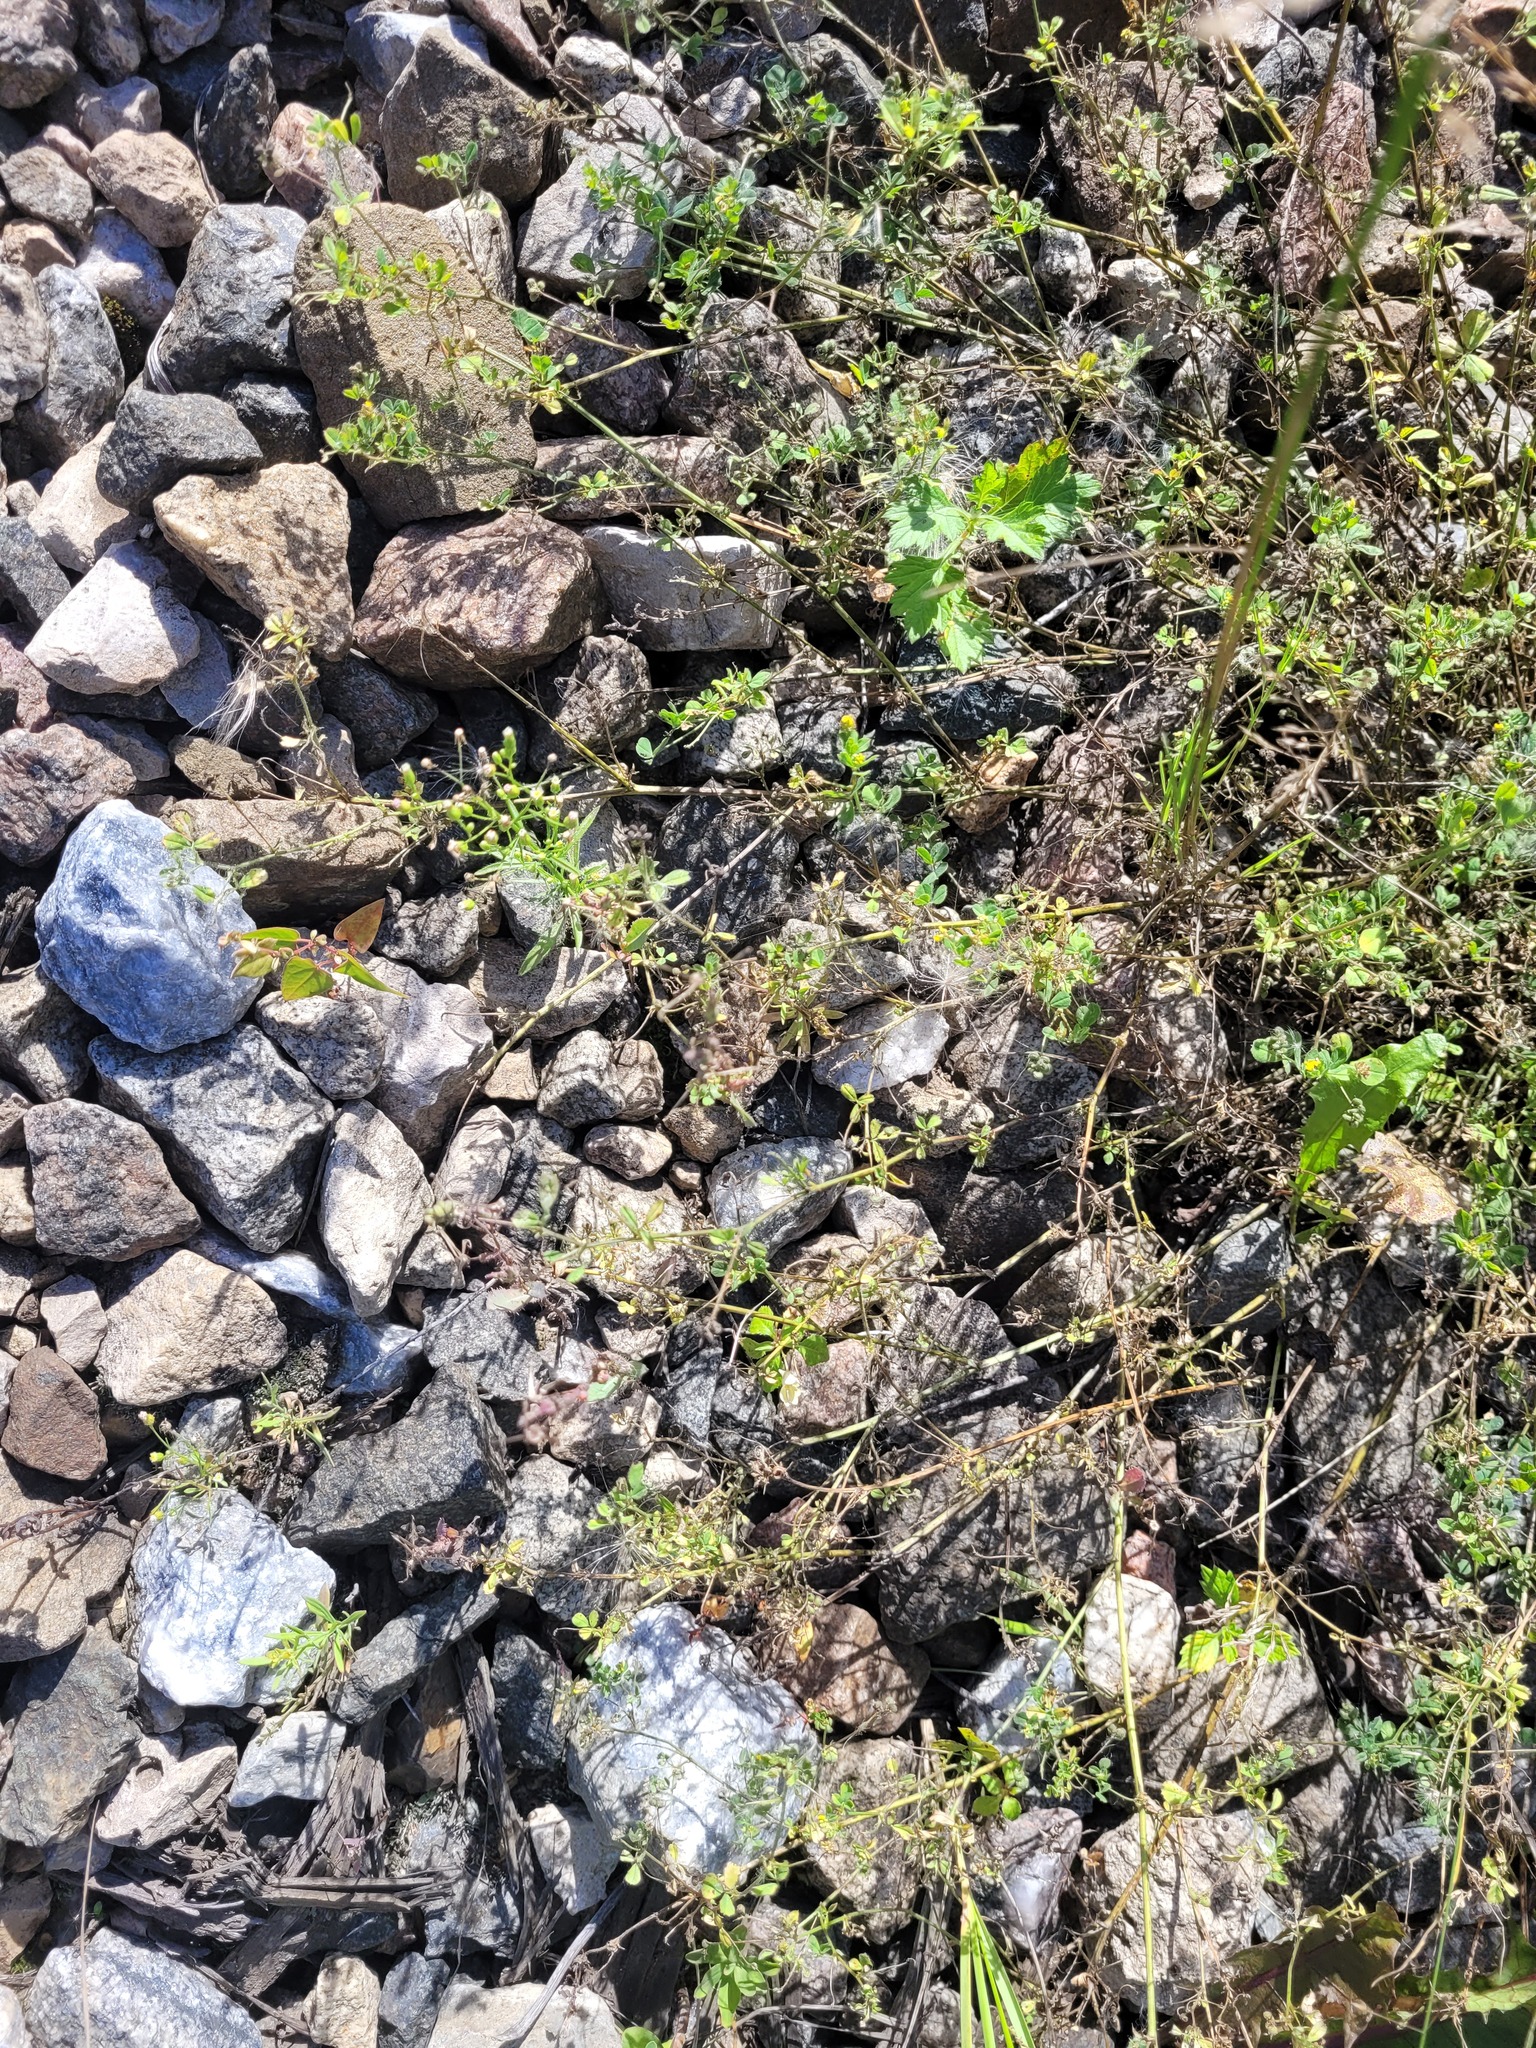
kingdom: Plantae
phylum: Tracheophyta
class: Magnoliopsida
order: Fabales
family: Fabaceae
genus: Medicago
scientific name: Medicago lupulina
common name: Black medick
